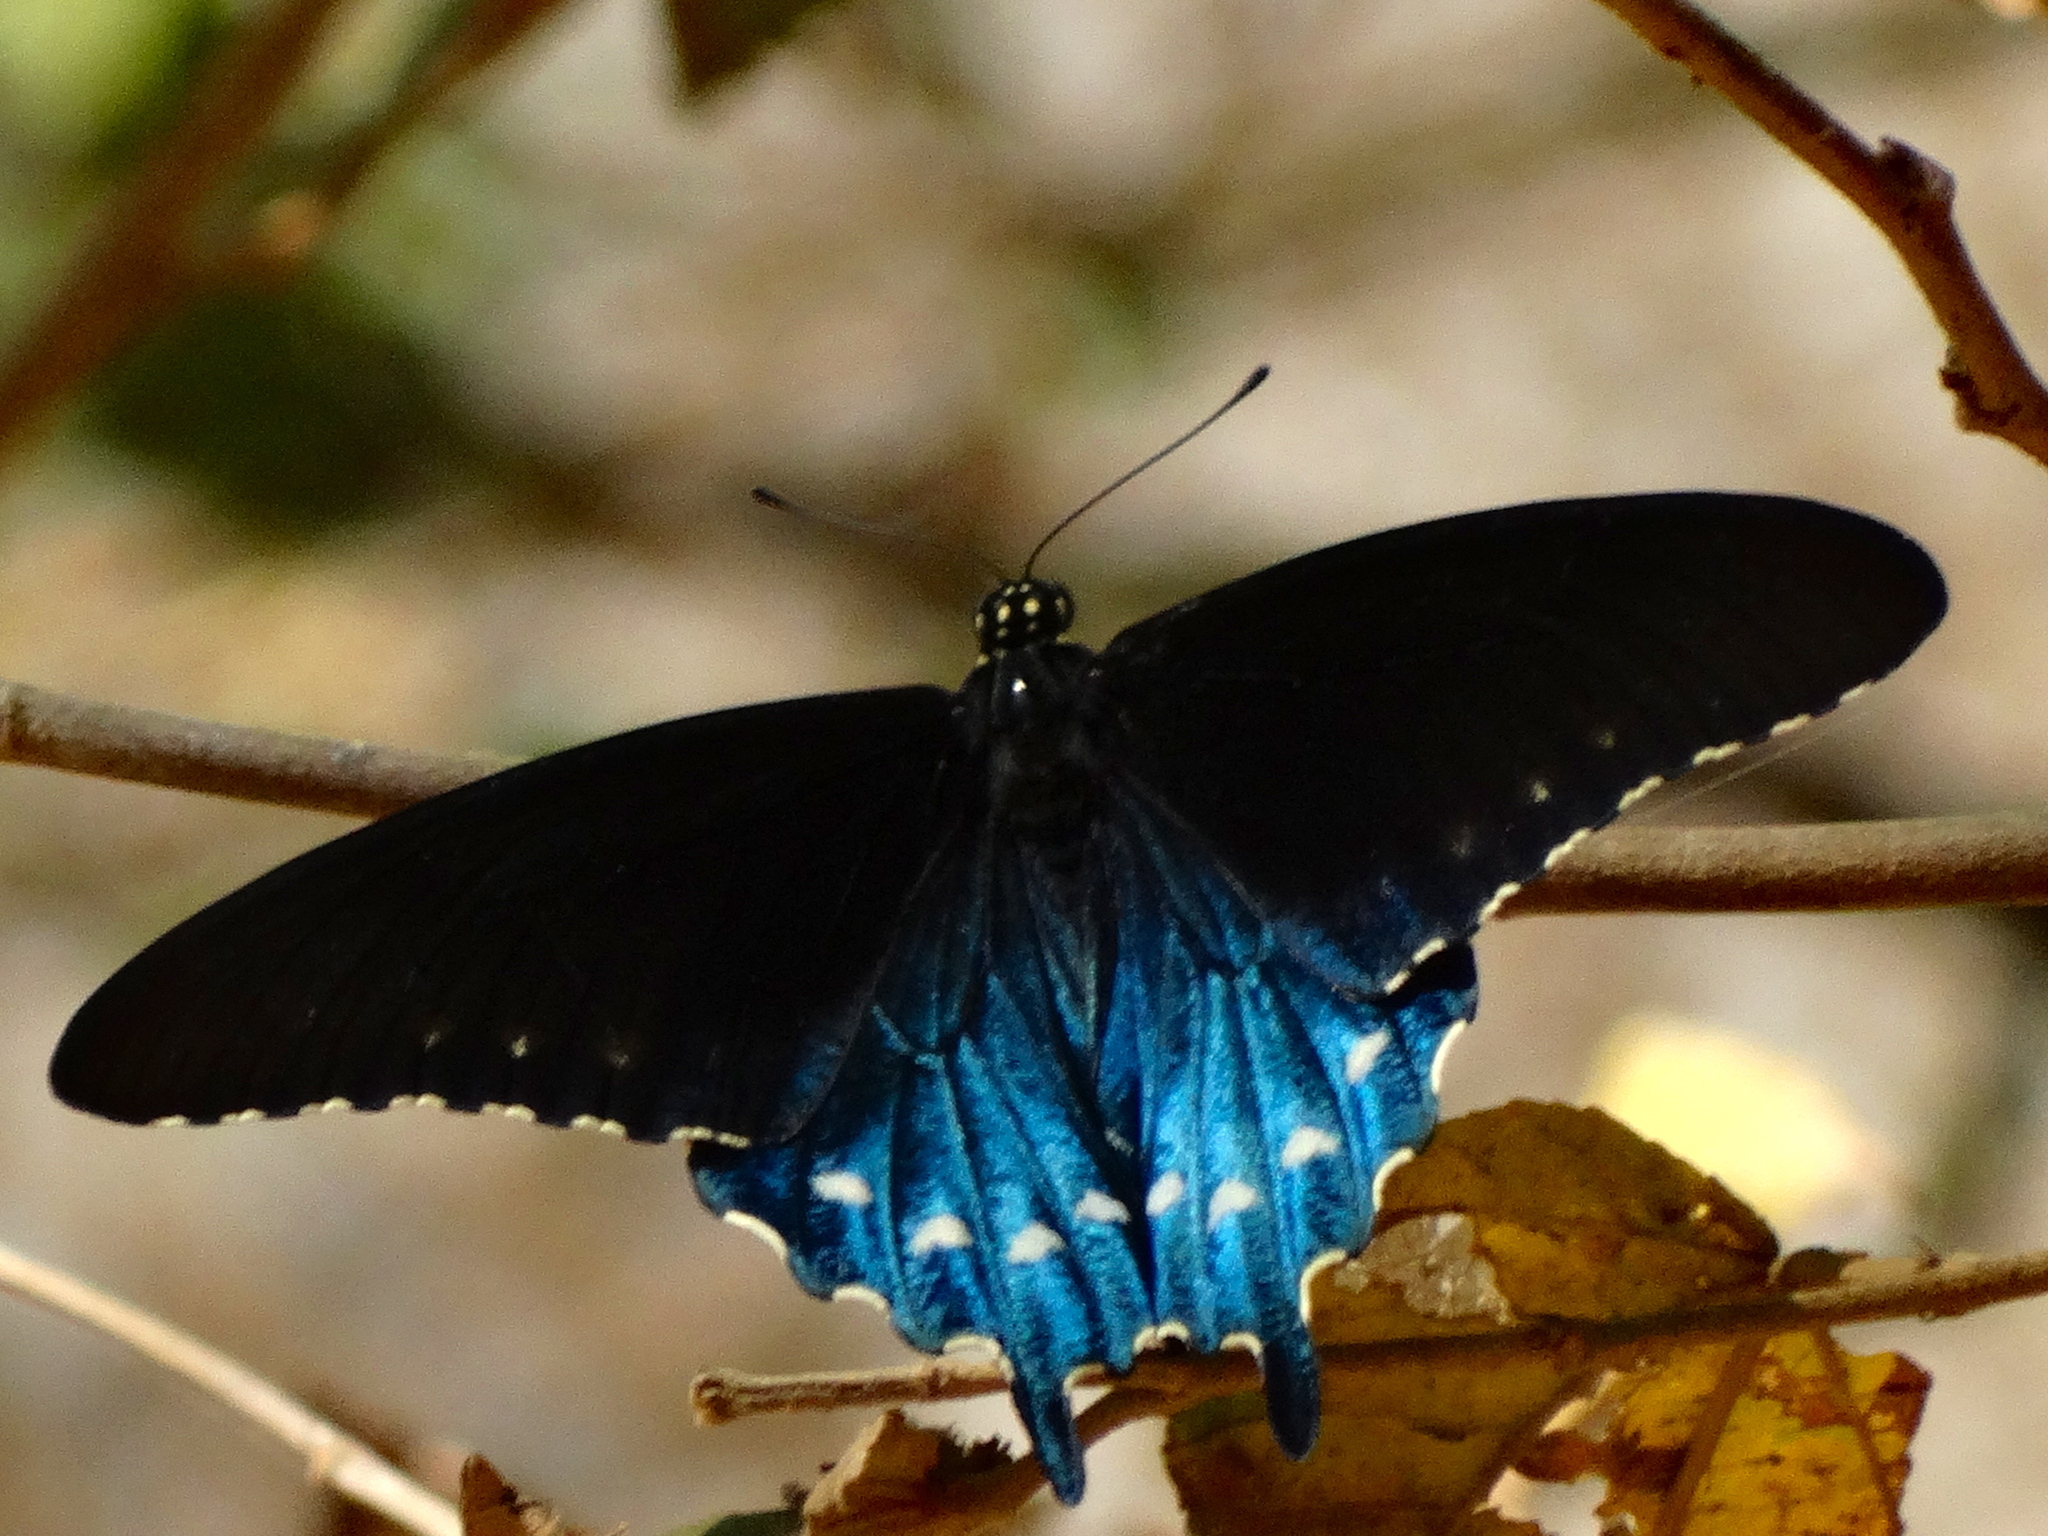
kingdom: Animalia
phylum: Arthropoda
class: Insecta
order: Lepidoptera
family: Papilionidae
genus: Battus
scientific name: Battus philenor
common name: Pipevine swallowtail
